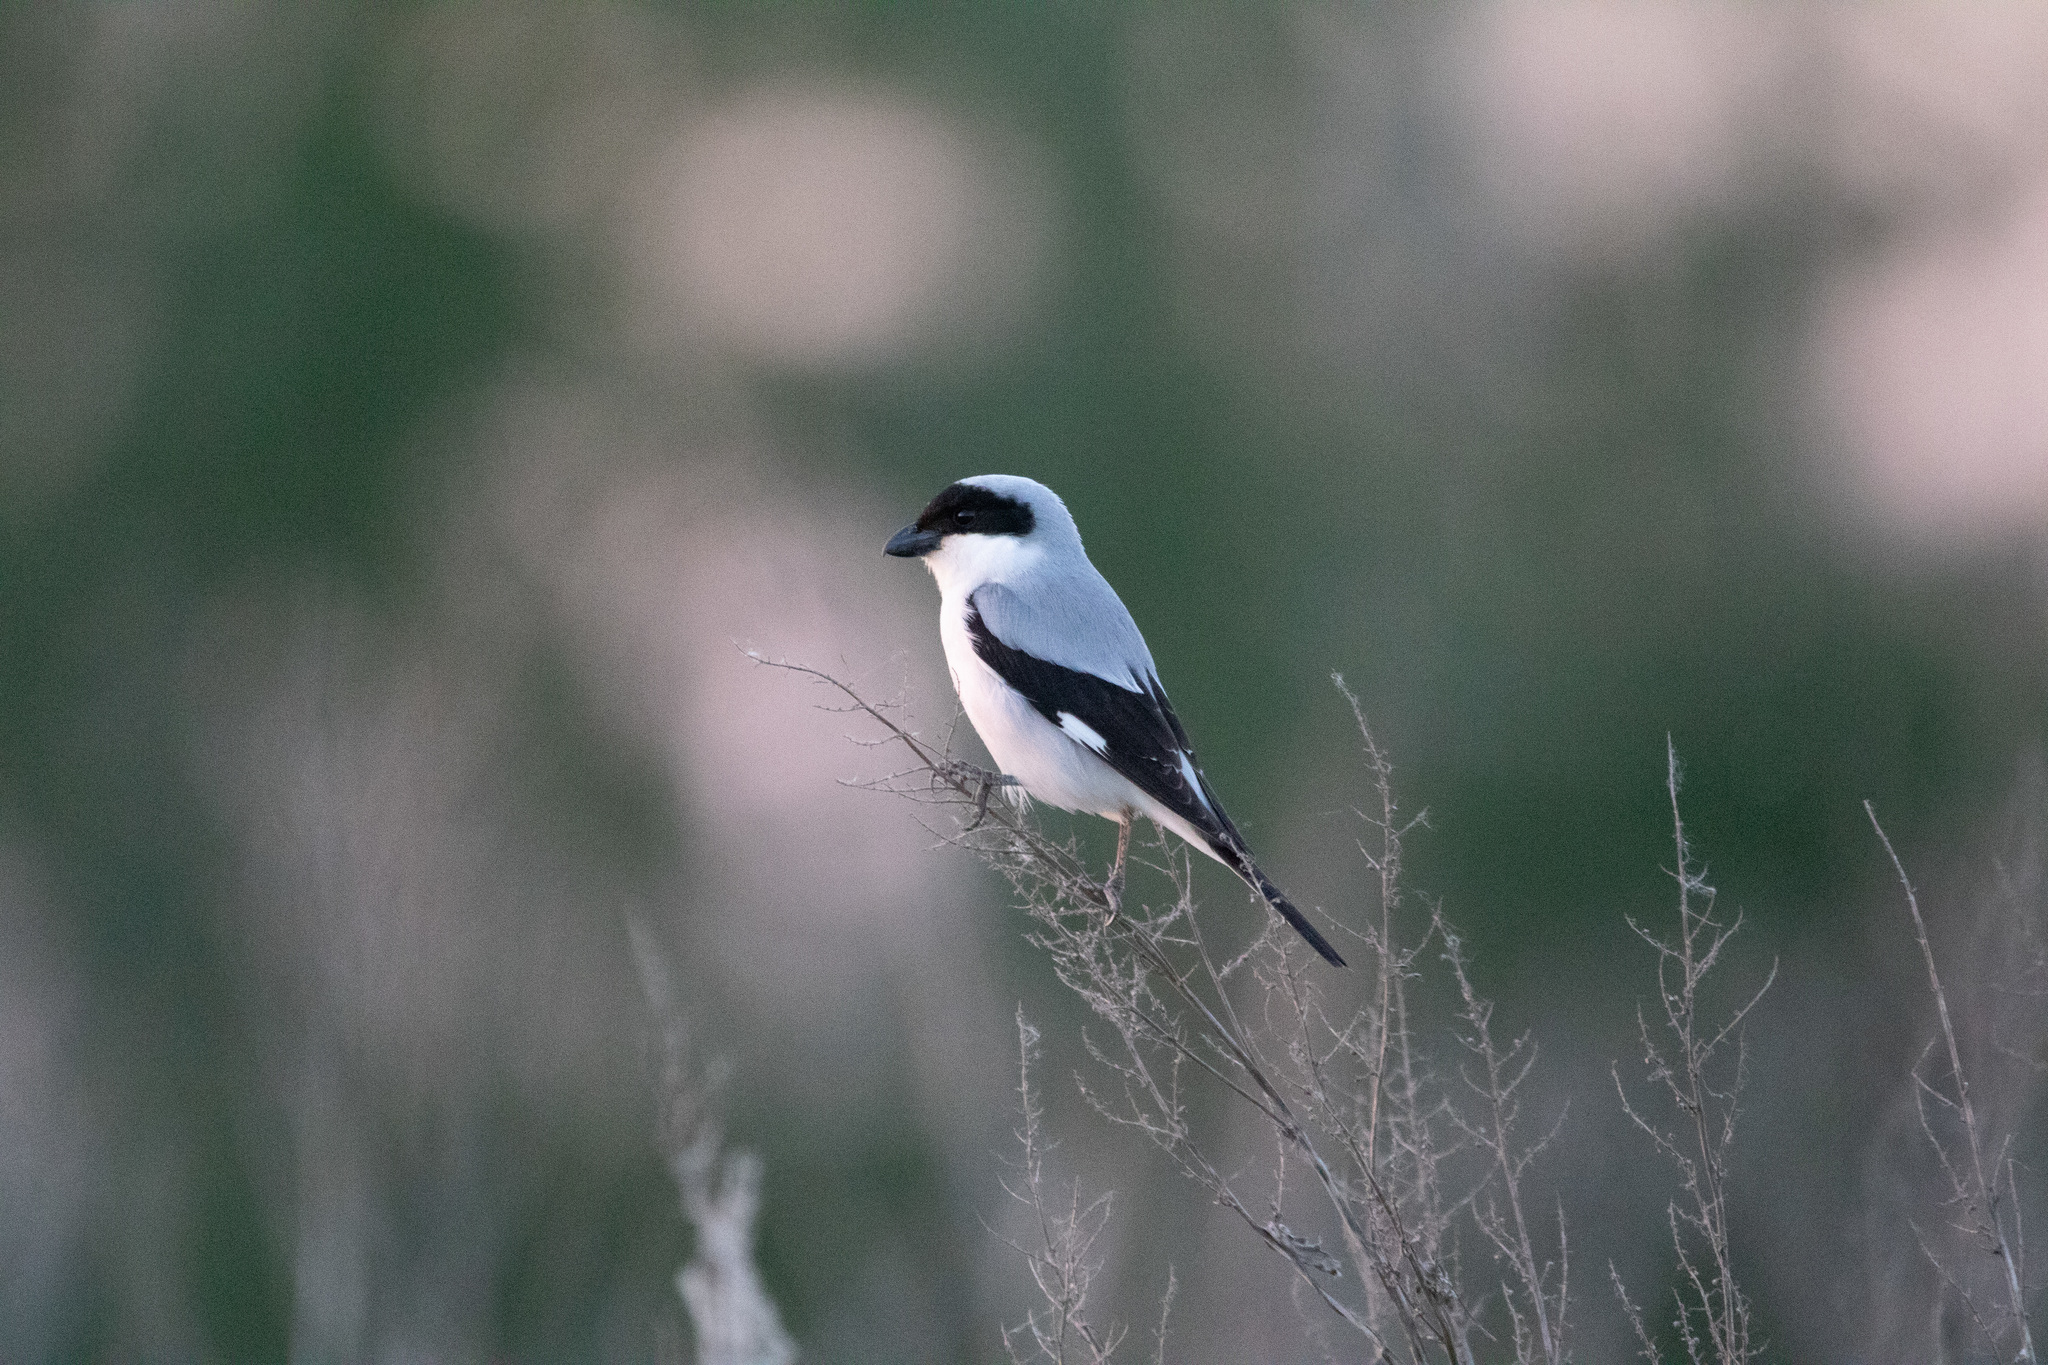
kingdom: Animalia
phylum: Chordata
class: Aves
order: Passeriformes
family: Laniidae
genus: Lanius
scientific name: Lanius minor
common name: Lesser grey shrike
